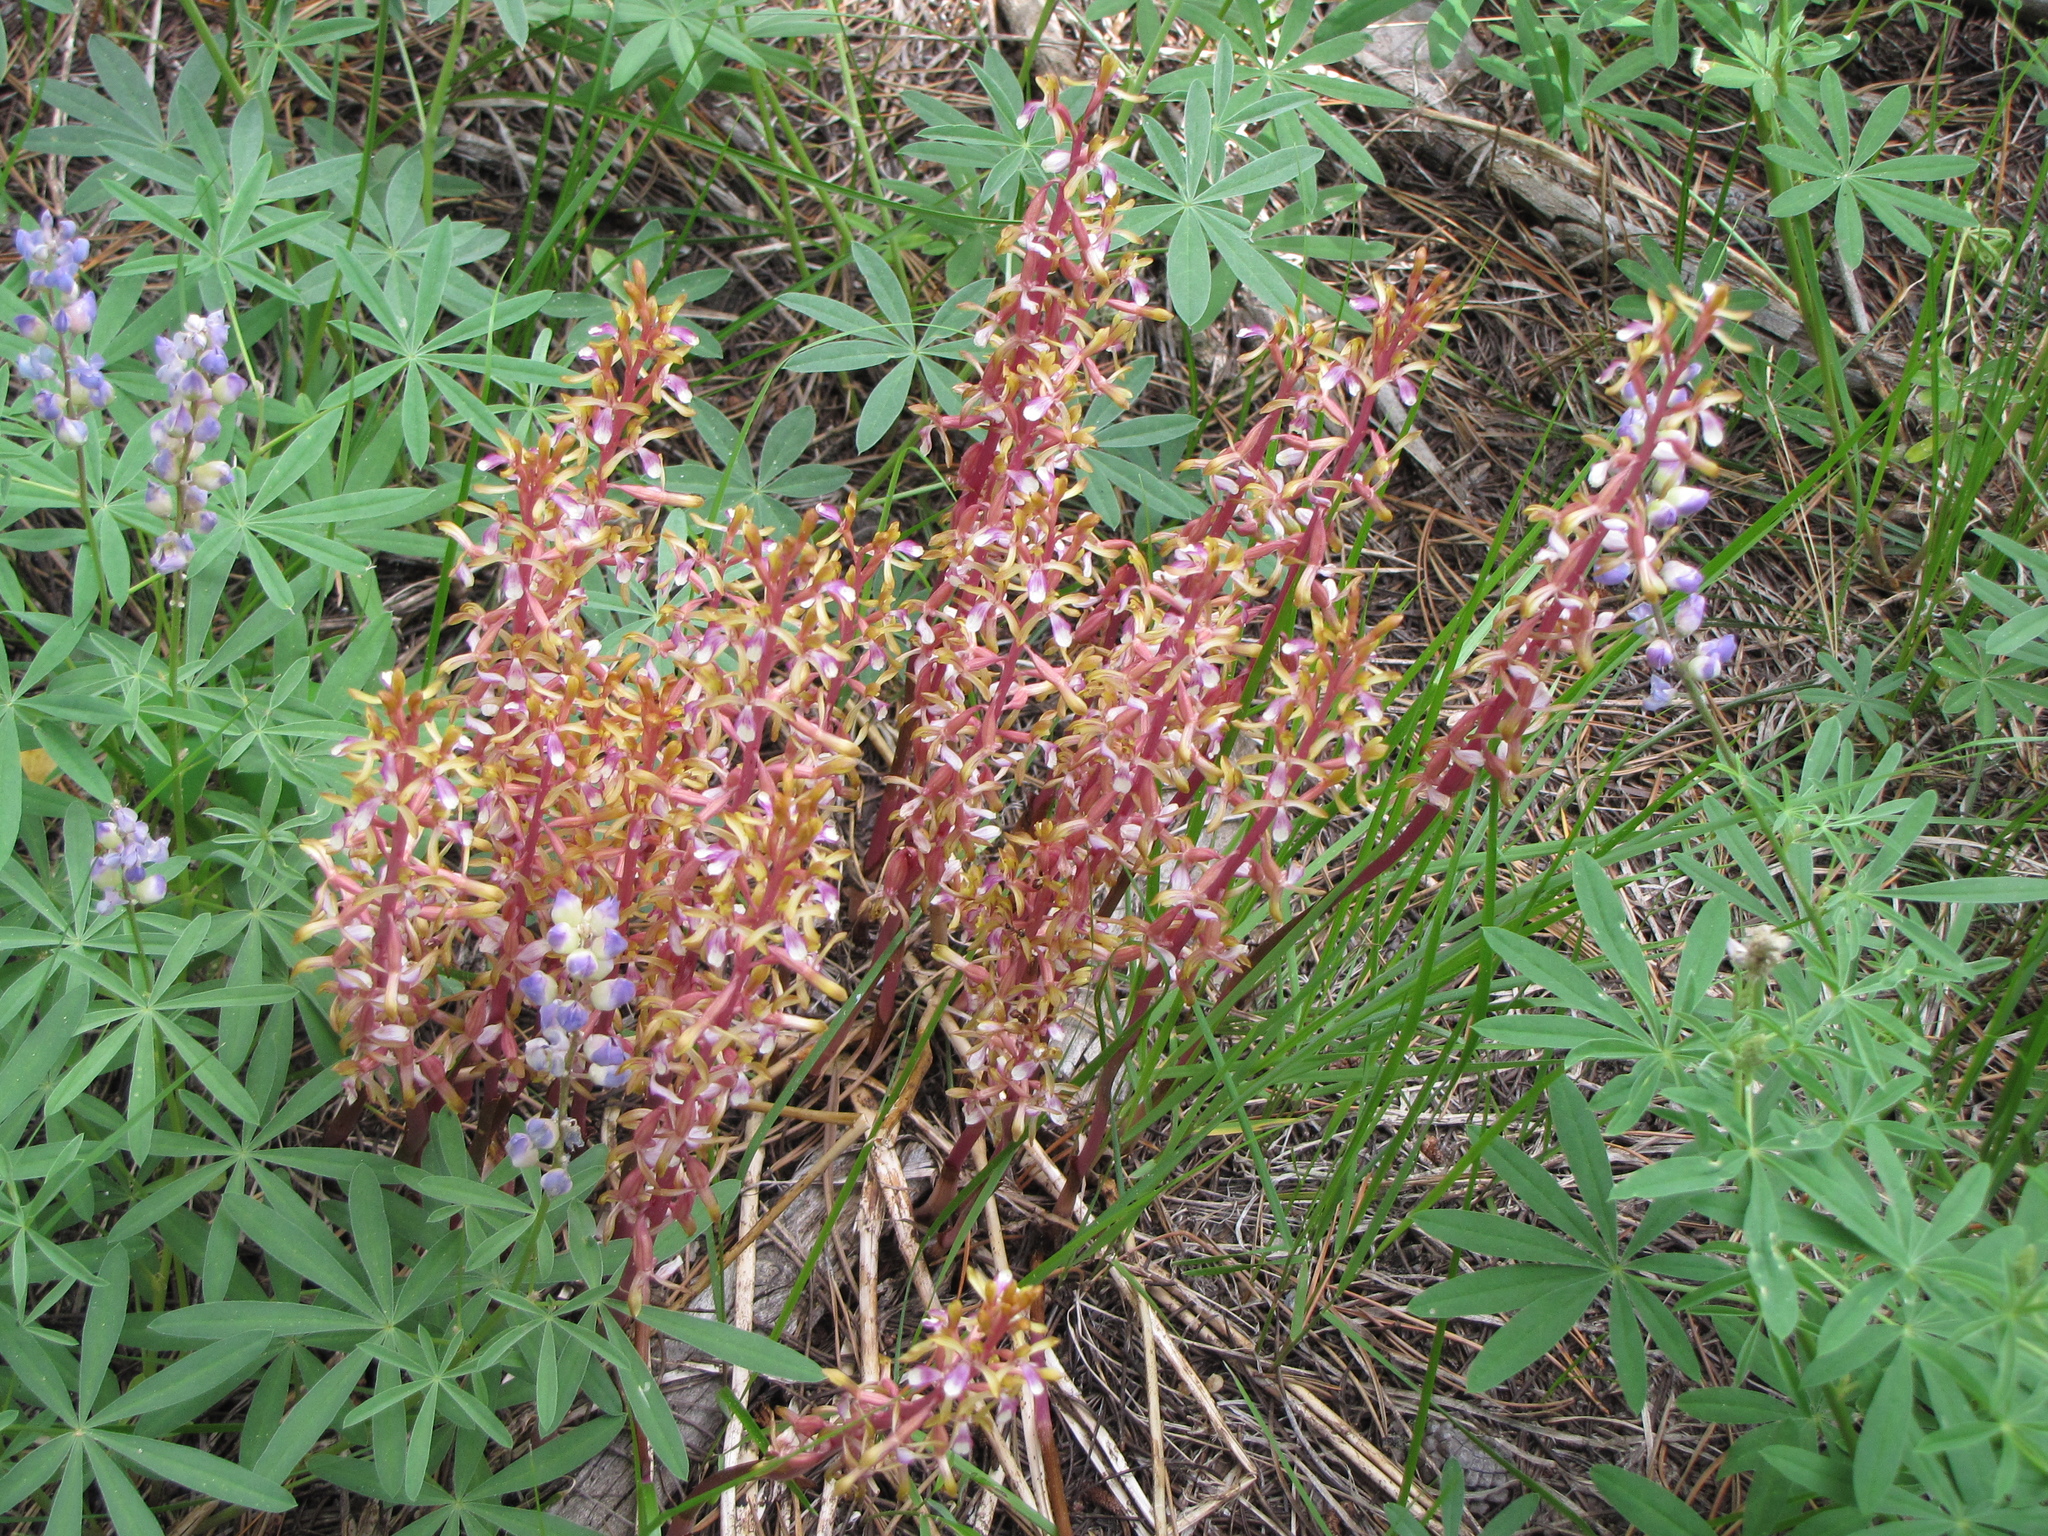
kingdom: Plantae
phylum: Tracheophyta
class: Liliopsida
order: Asparagales
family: Orchidaceae
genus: Corallorhiza
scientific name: Corallorhiza mertensiana
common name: Pacific coralroot
